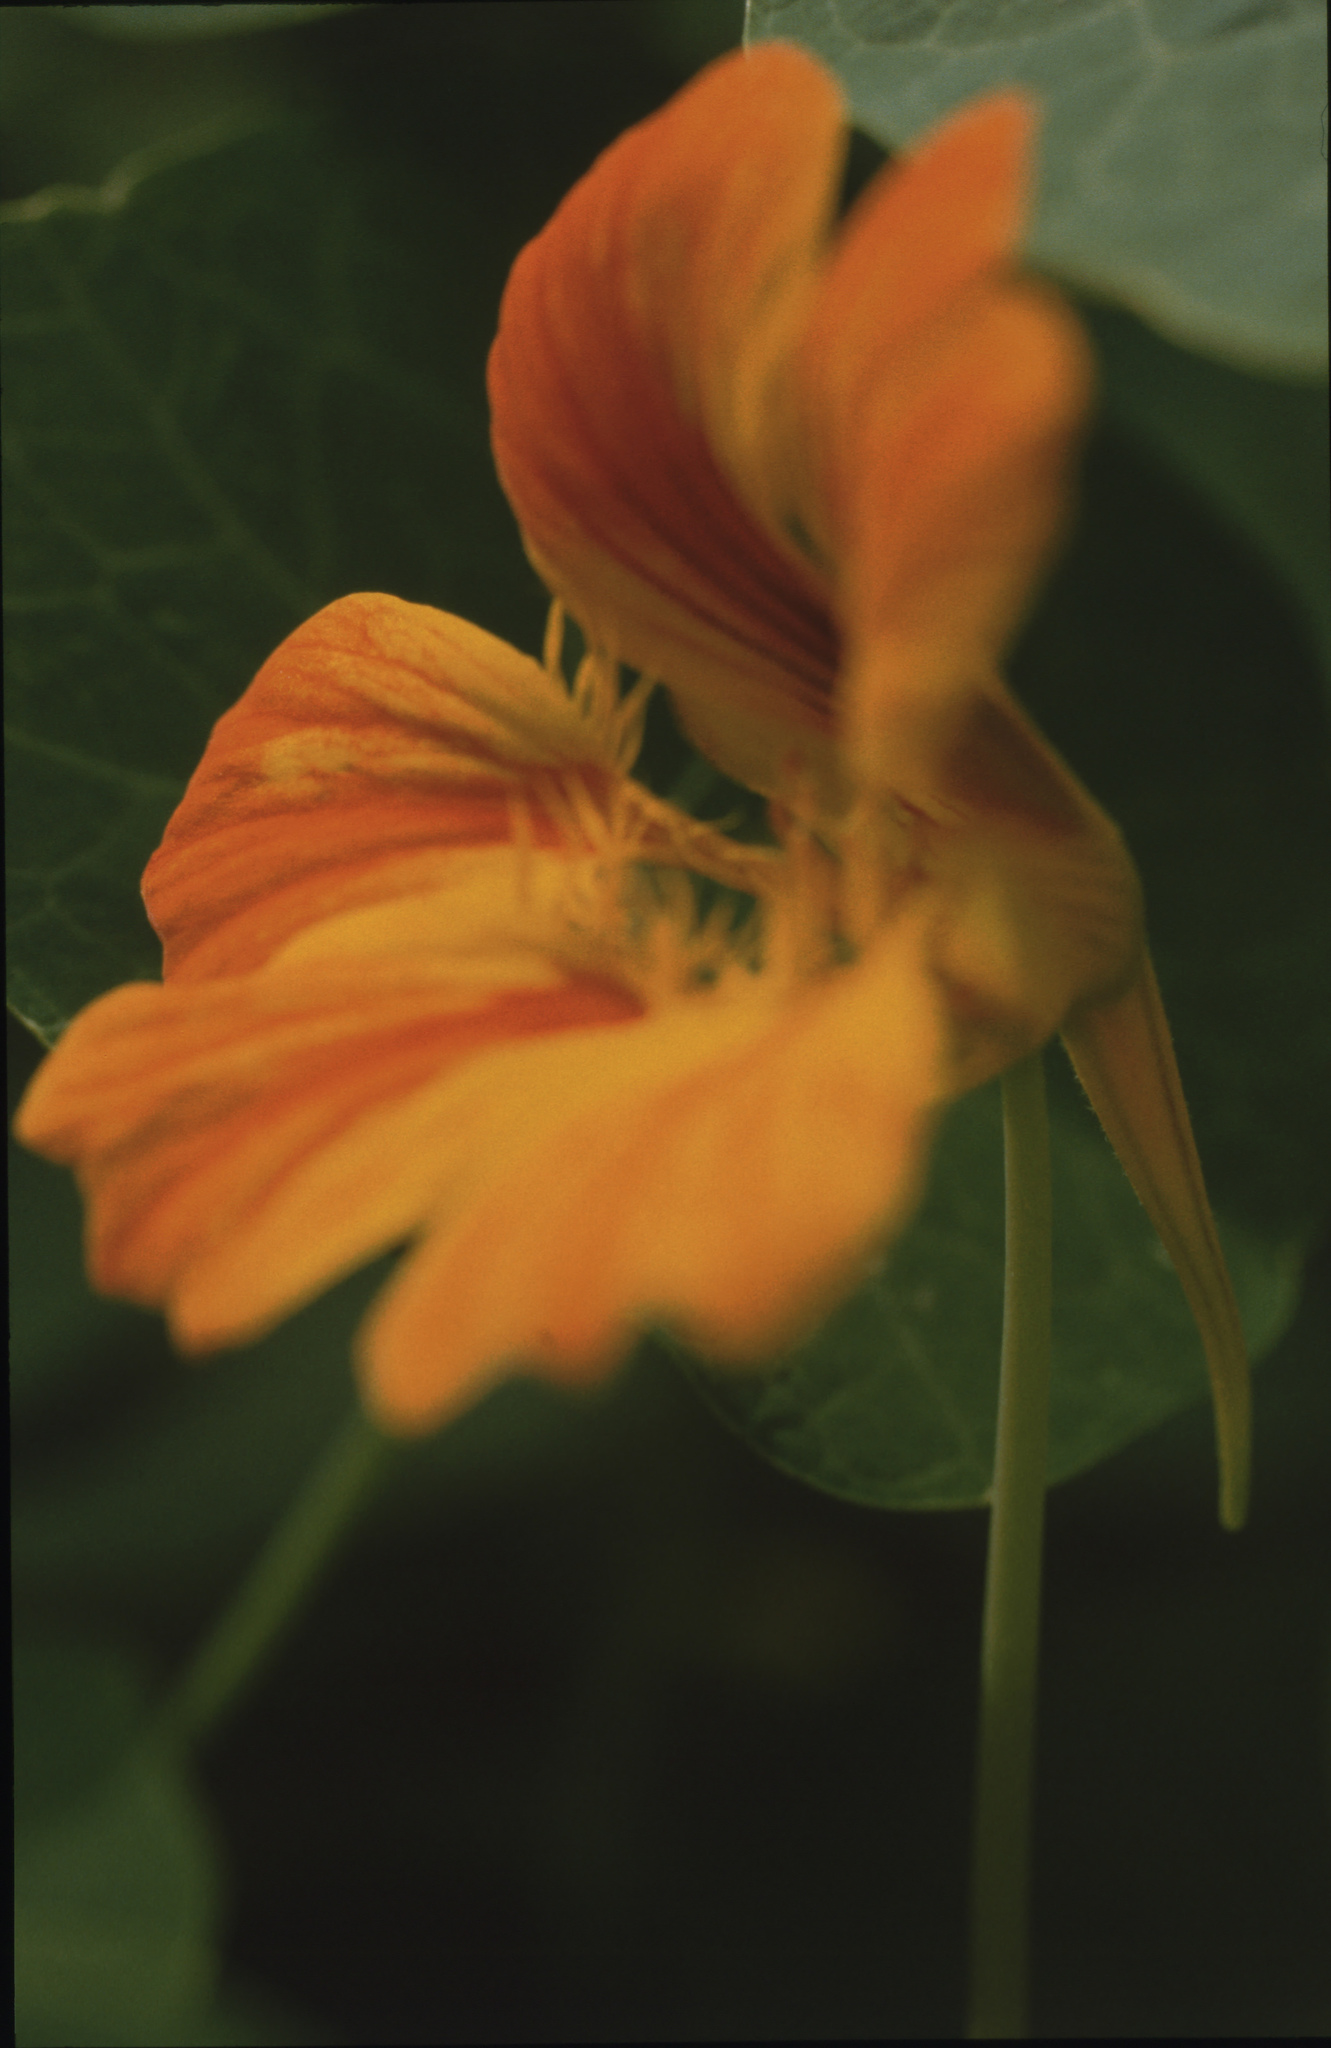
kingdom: Plantae
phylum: Tracheophyta
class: Magnoliopsida
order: Brassicales
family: Tropaeolaceae
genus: Tropaeolum
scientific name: Tropaeolum majus
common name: Nasturtium
